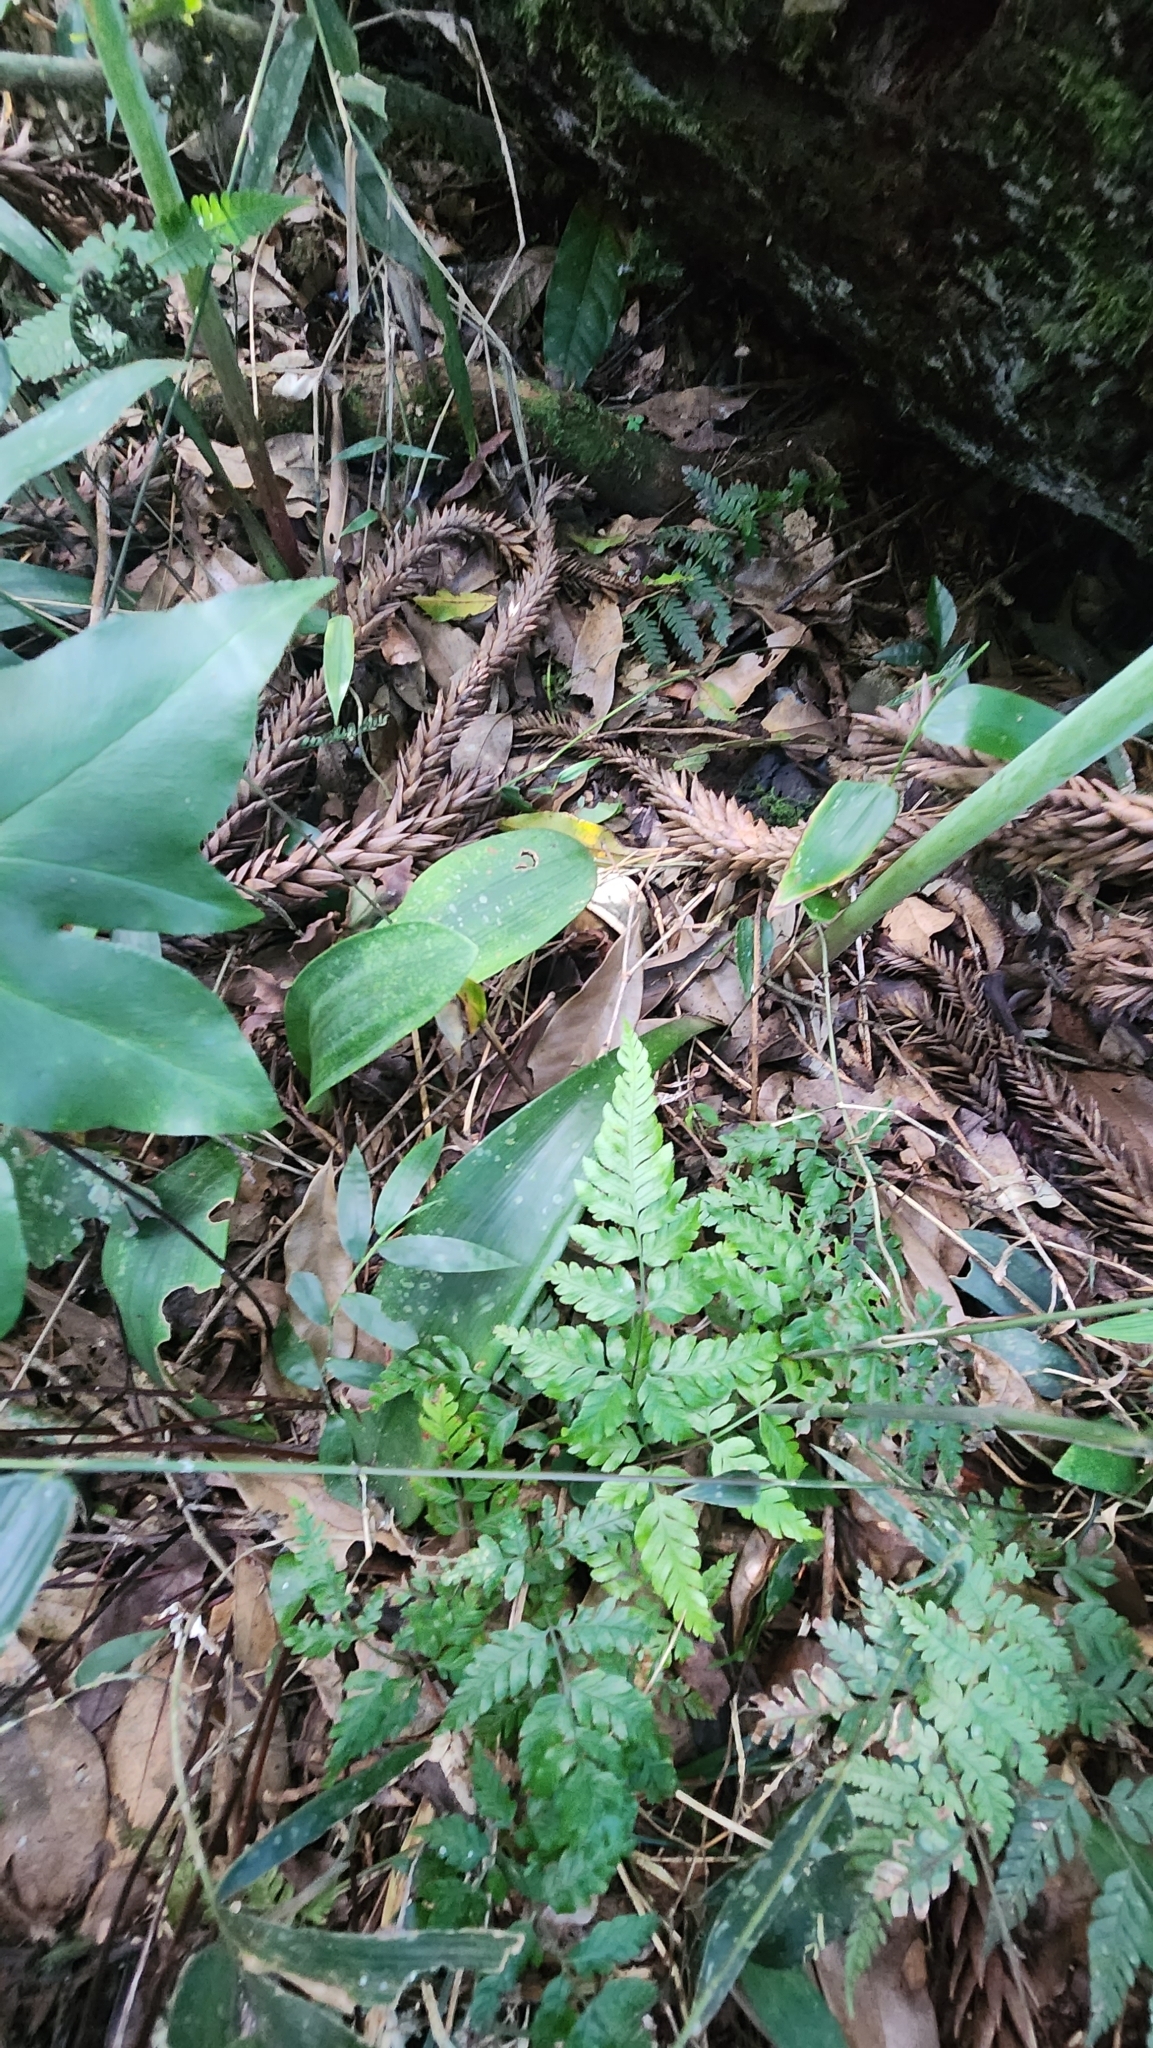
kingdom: Plantae
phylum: Tracheophyta
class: Liliopsida
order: Asparagales
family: Amaryllidaceae
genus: Hippeastrum
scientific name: Hippeastrum reticulatum
